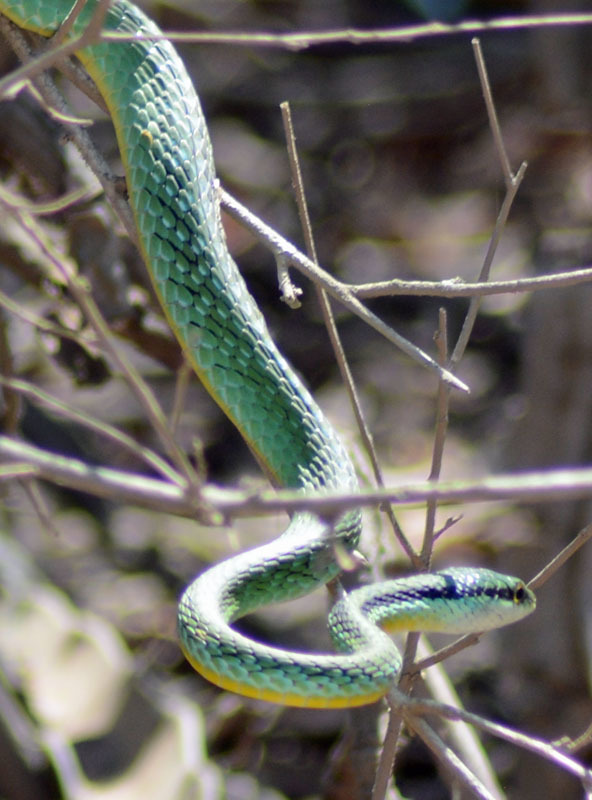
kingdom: Animalia
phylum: Chordata
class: Squamata
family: Colubridae
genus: Leptophis
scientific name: Leptophis diplotropis
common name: Pacific coast parrot snake
